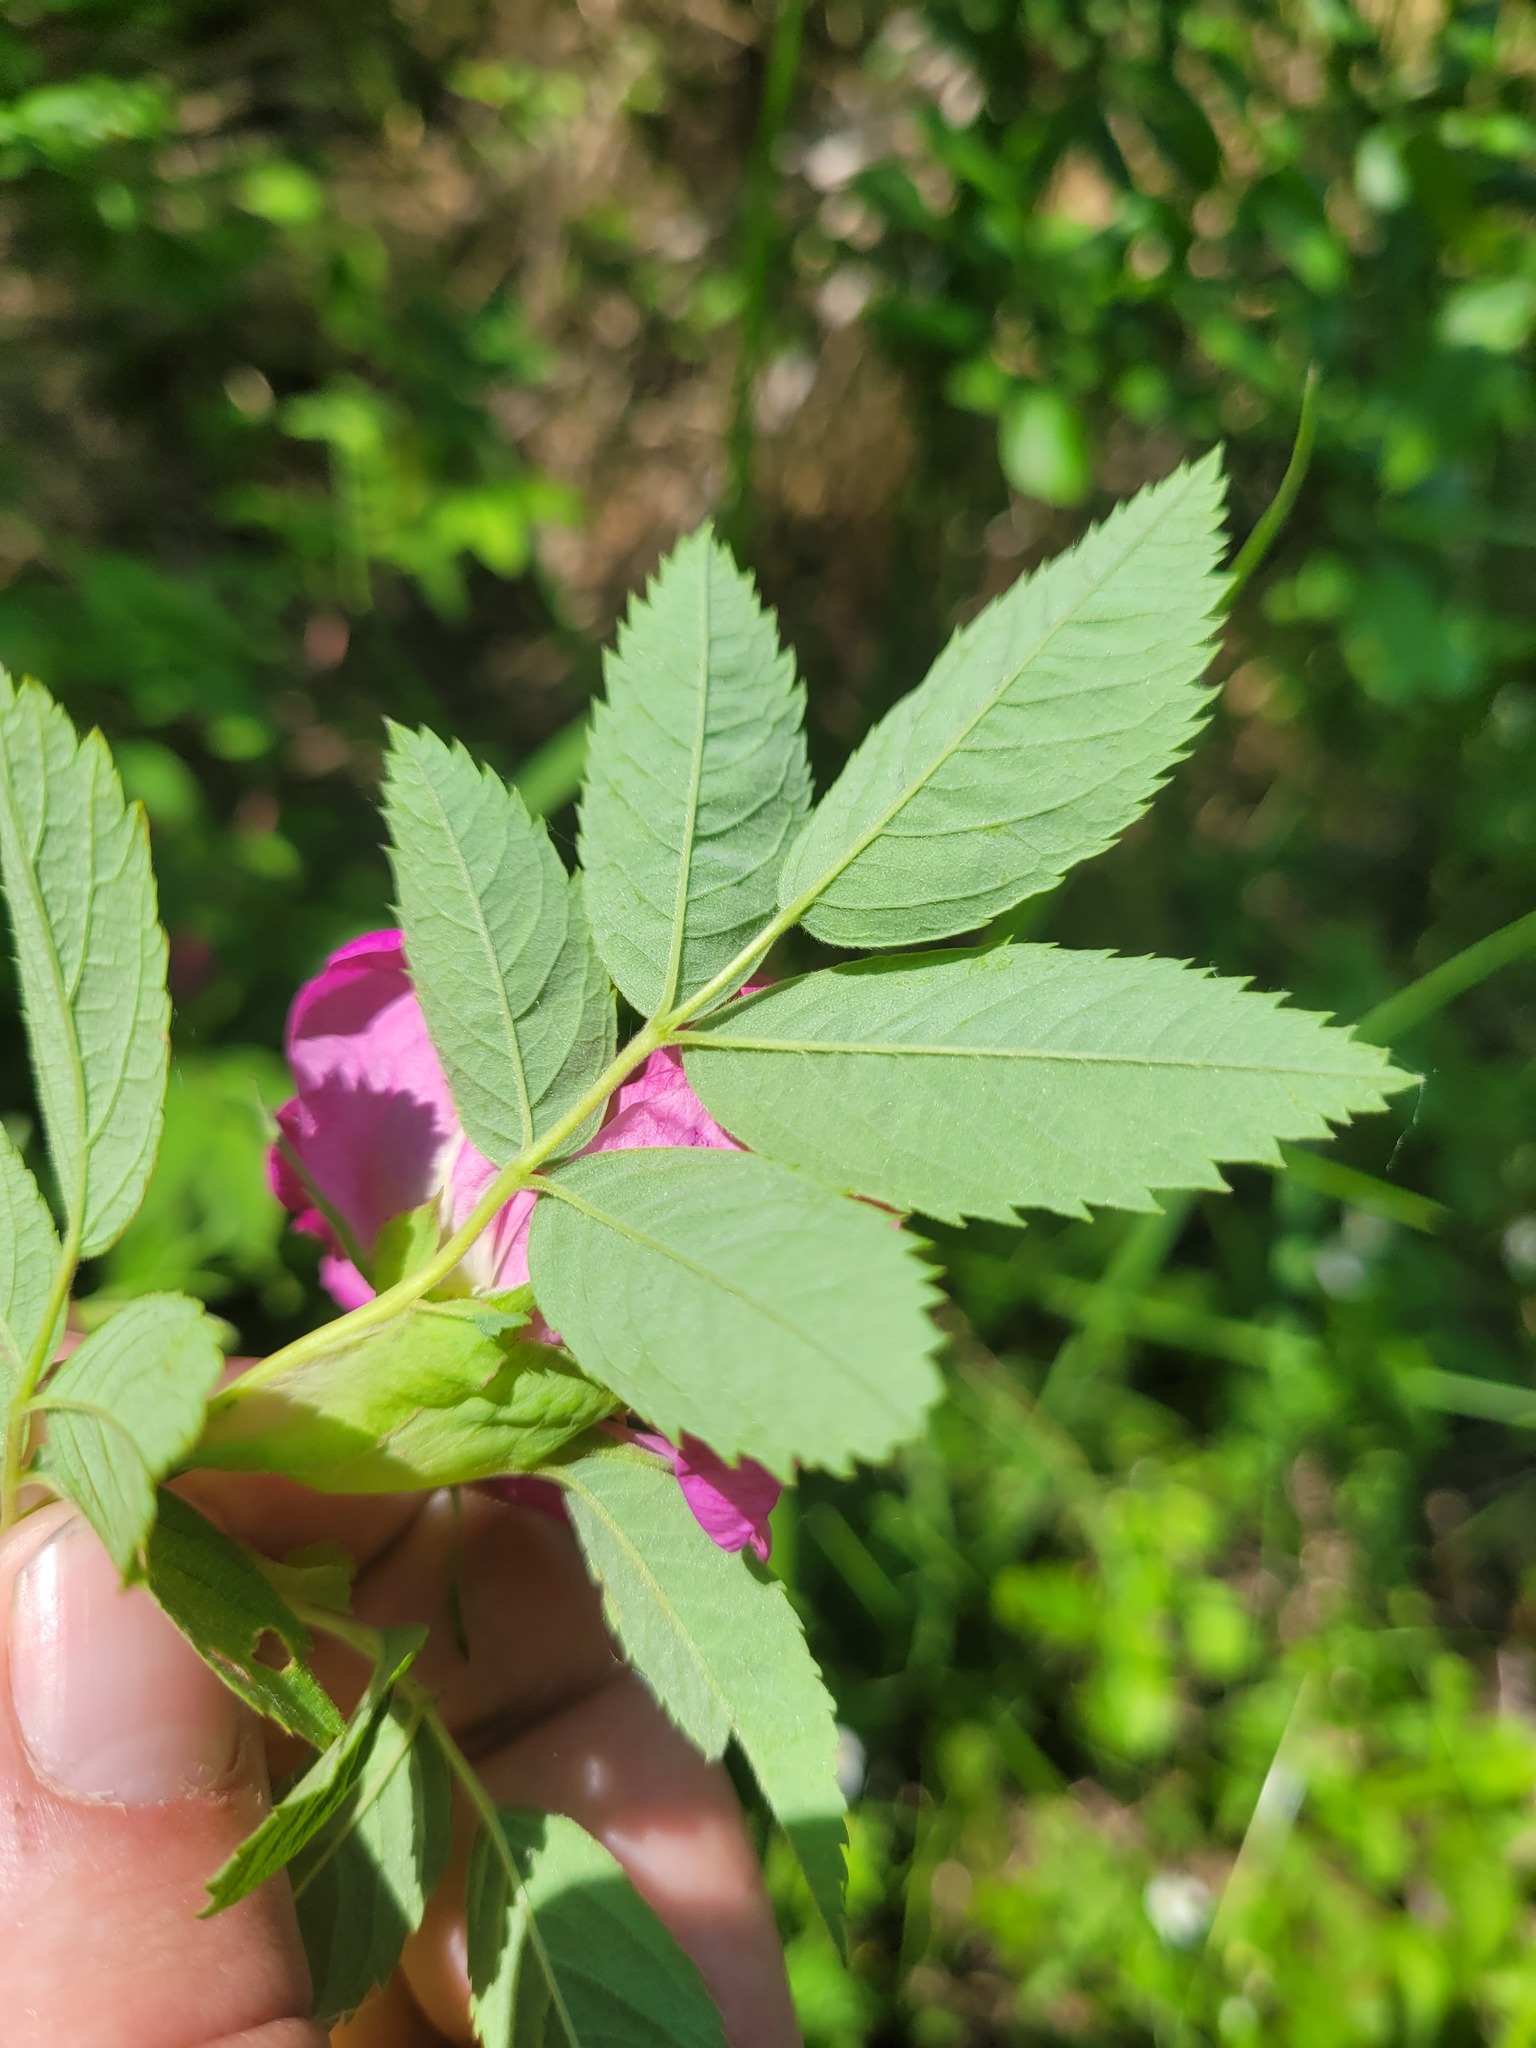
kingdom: Plantae
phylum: Tracheophyta
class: Magnoliopsida
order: Rosales
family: Rosaceae
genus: Rosa
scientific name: Rosa majalis
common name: Cinnamon rose
